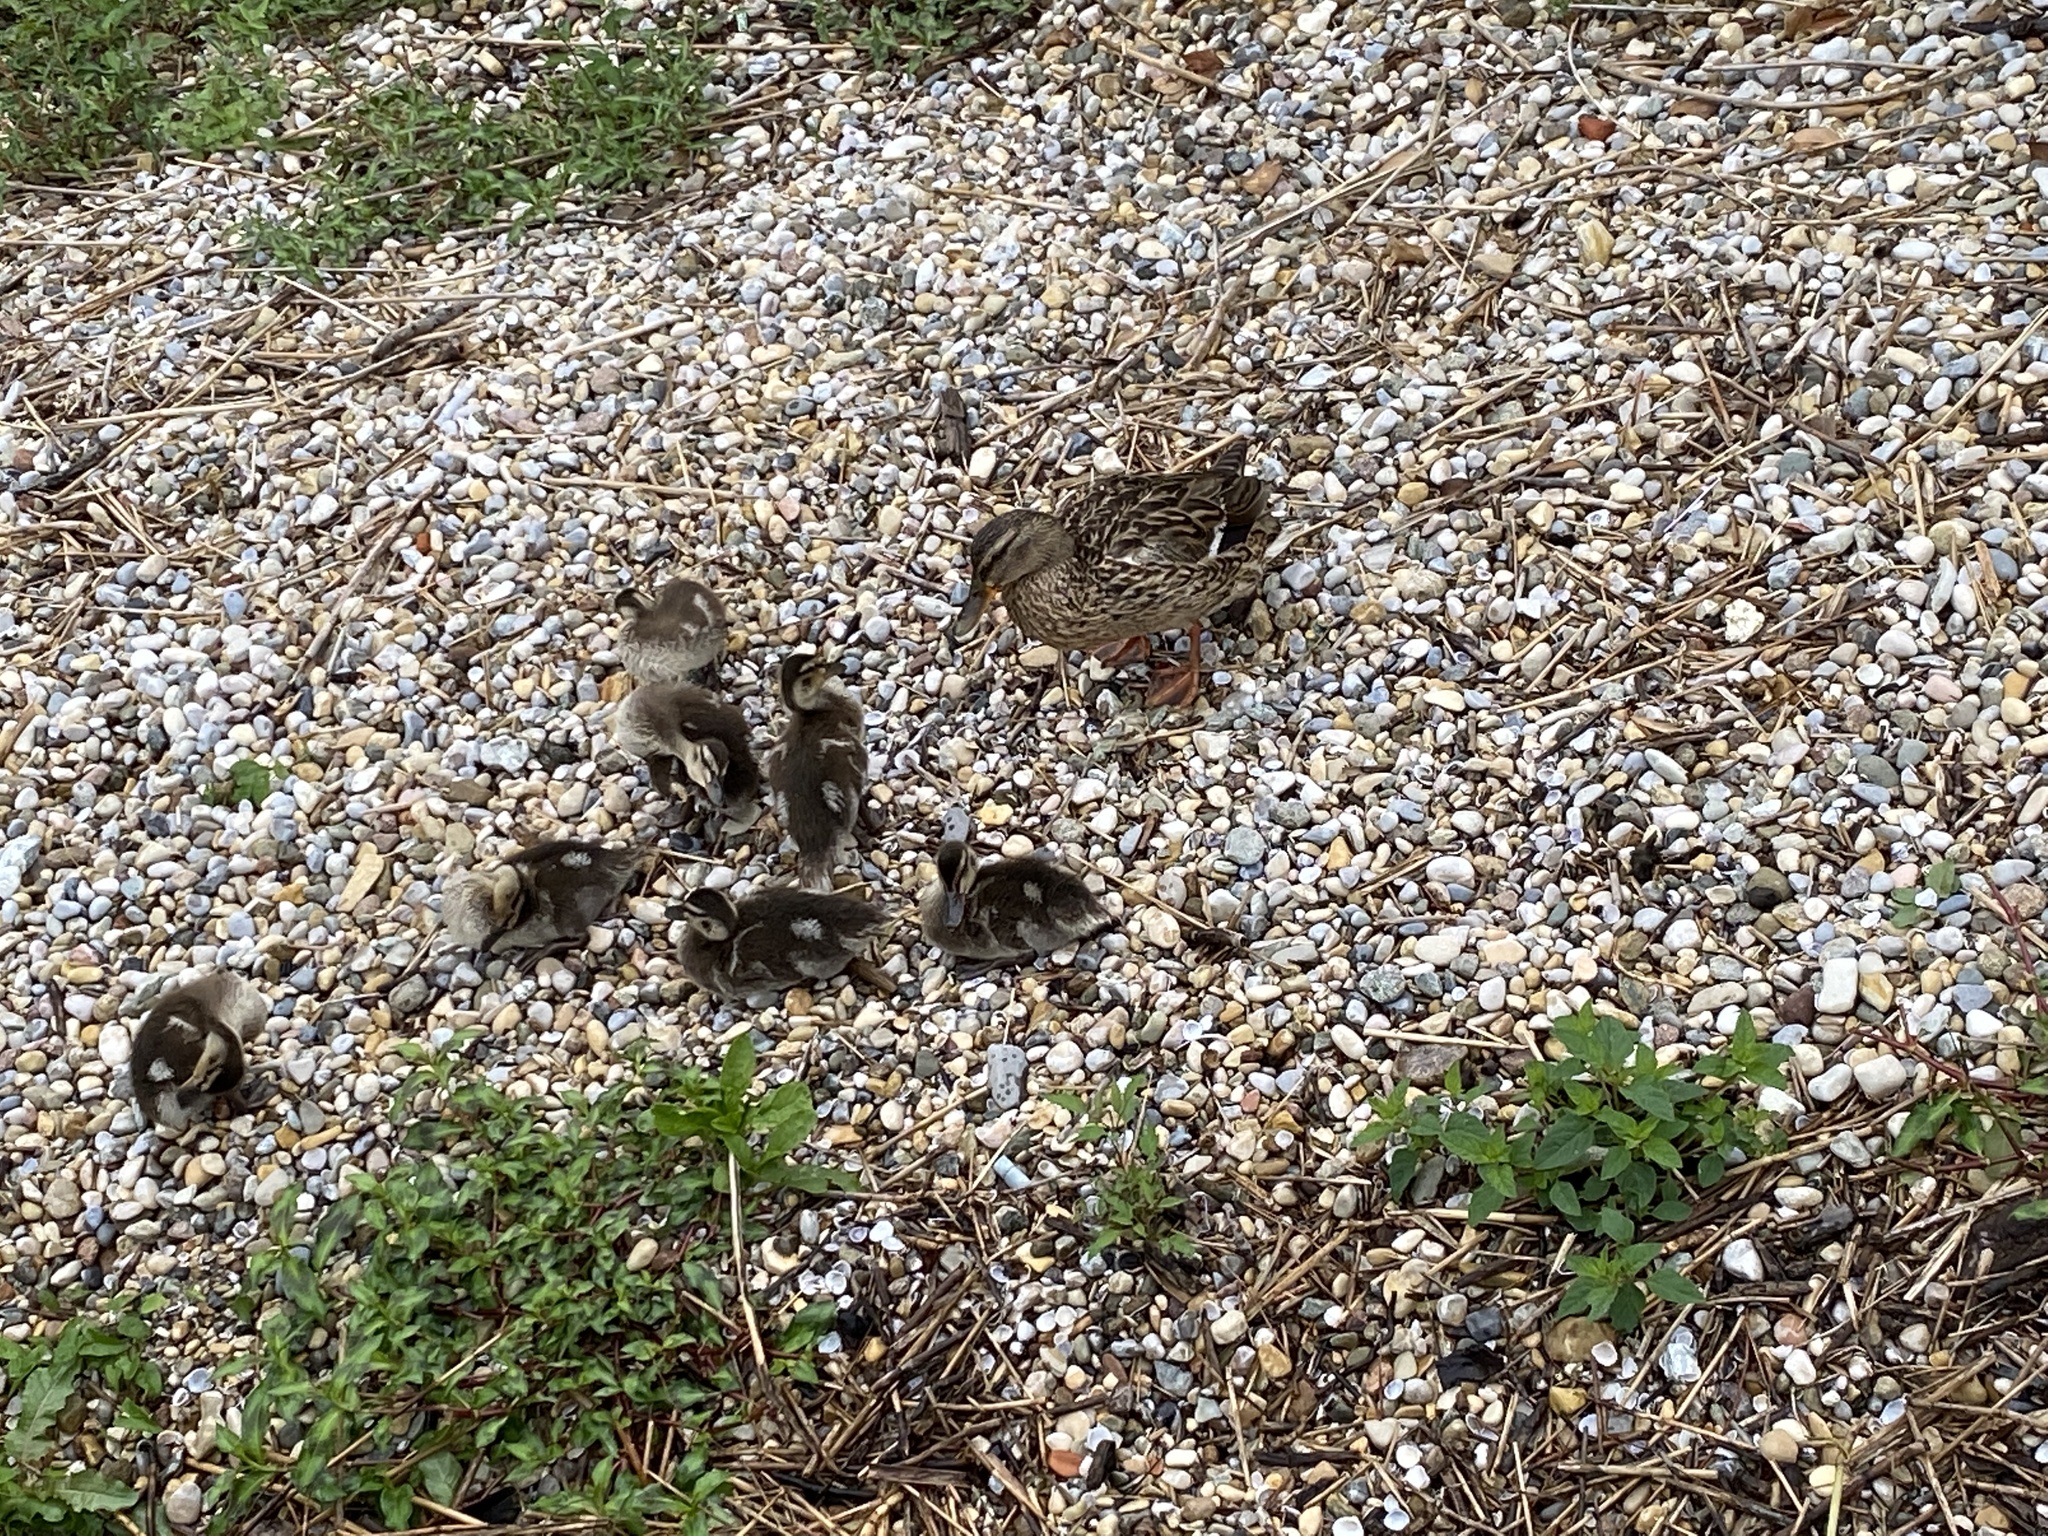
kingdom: Animalia
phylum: Chordata
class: Aves
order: Anseriformes
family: Anatidae
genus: Anas
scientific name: Anas platyrhynchos
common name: Mallard
